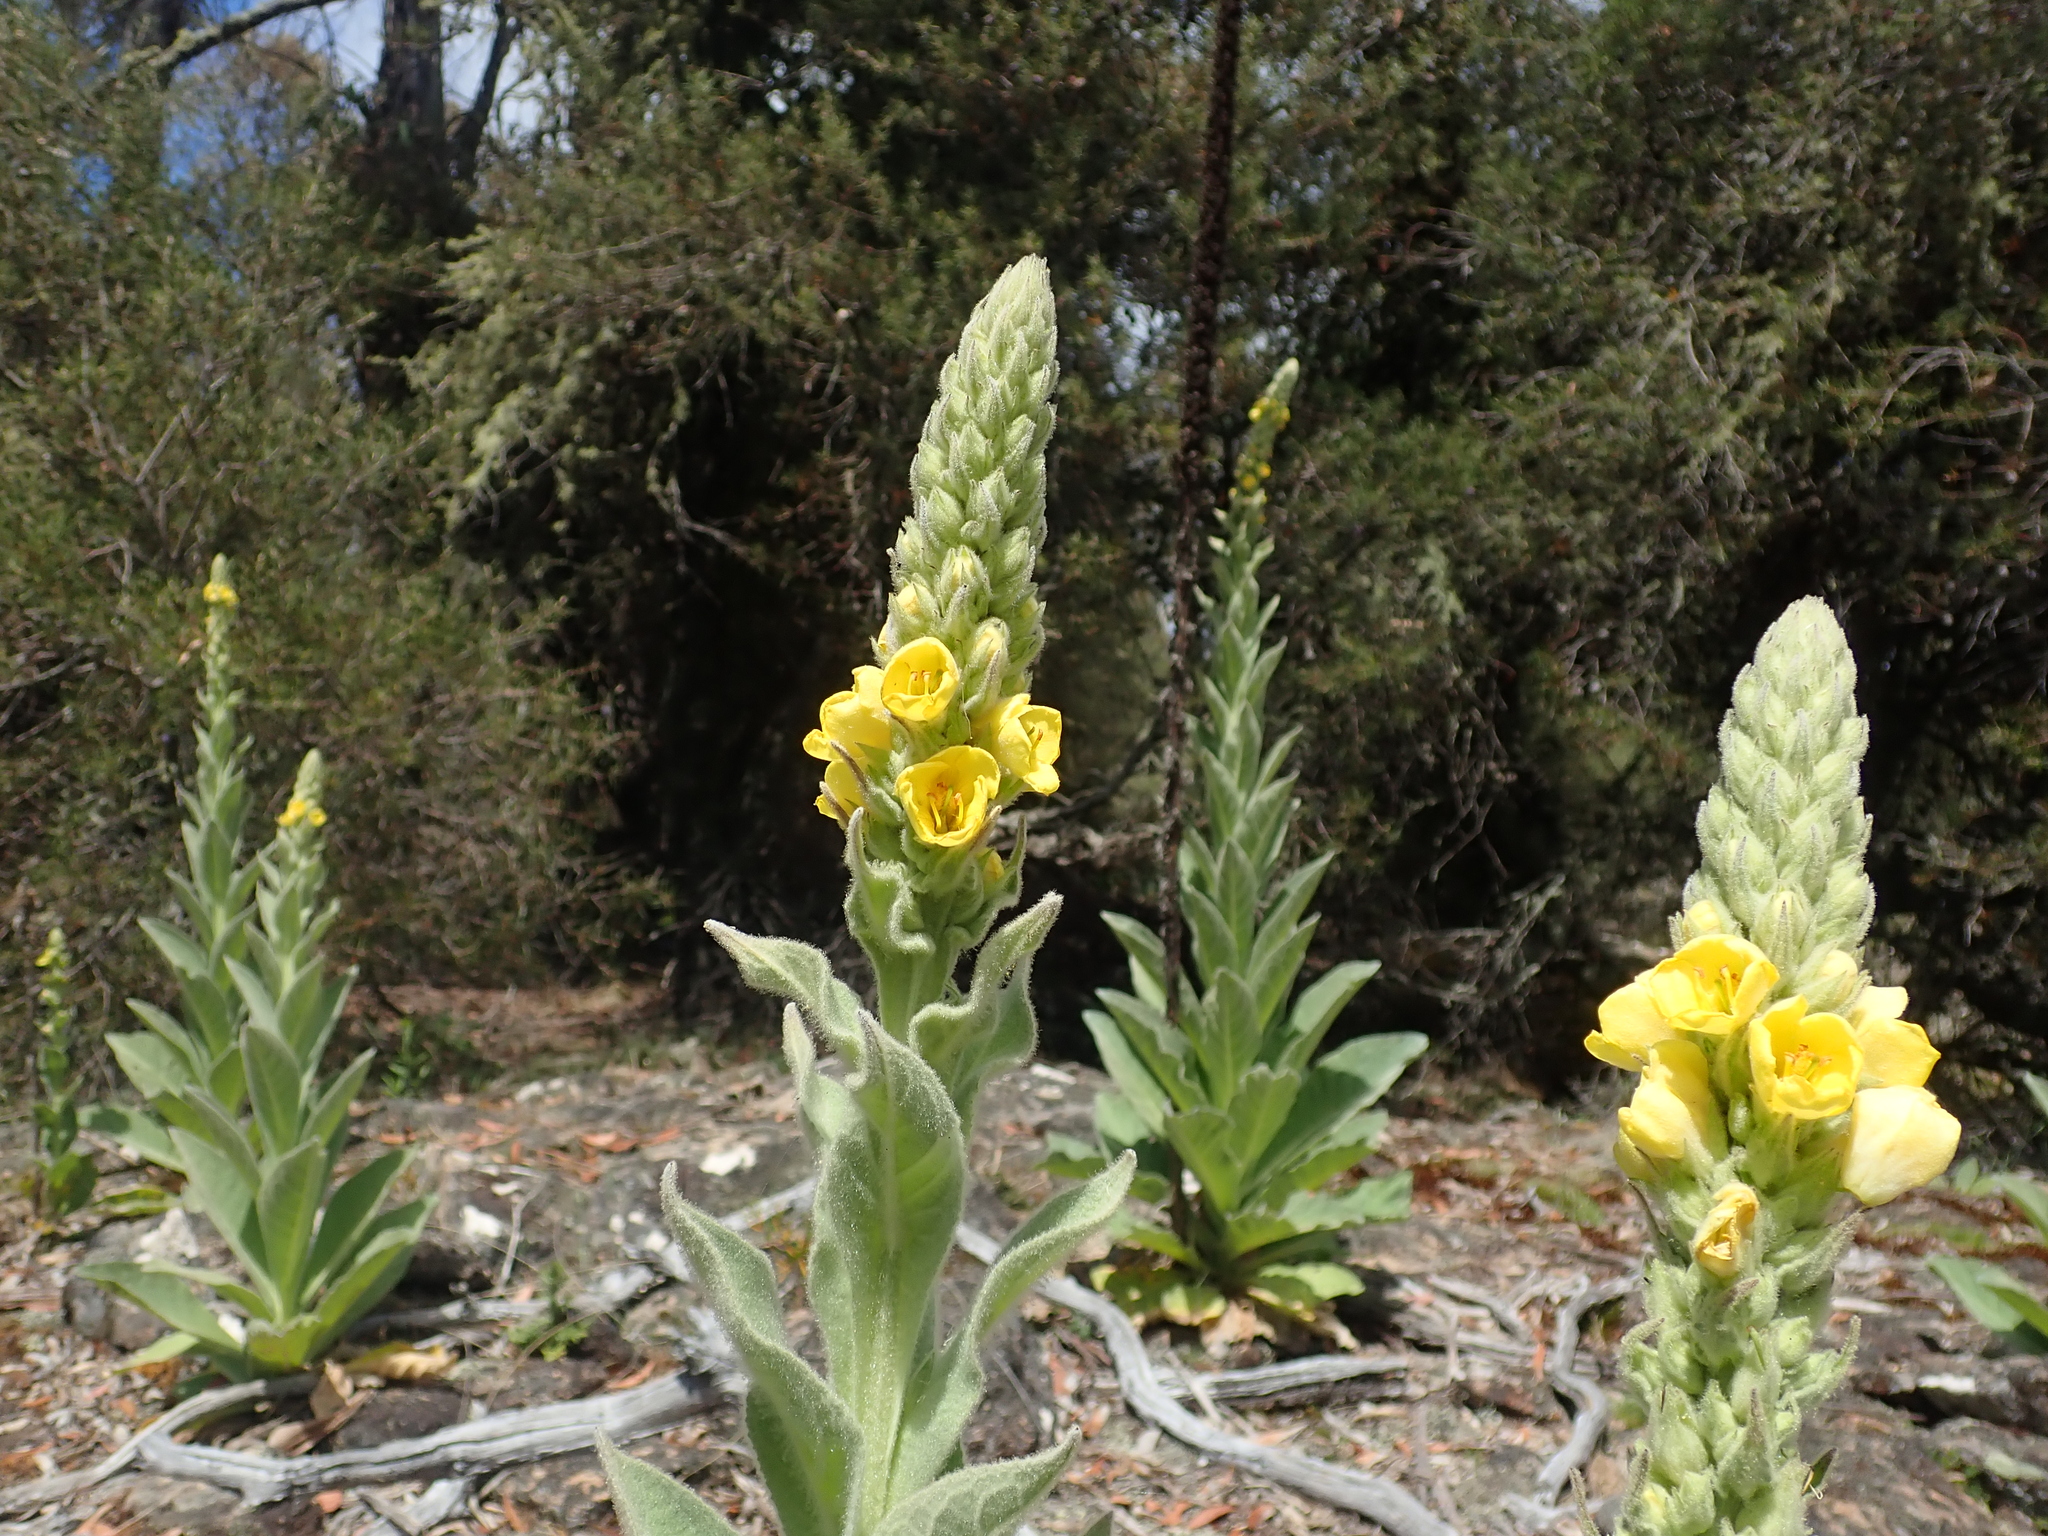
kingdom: Plantae
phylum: Tracheophyta
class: Magnoliopsida
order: Lamiales
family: Scrophulariaceae
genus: Verbascum
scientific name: Verbascum thapsus
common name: Common mullein
